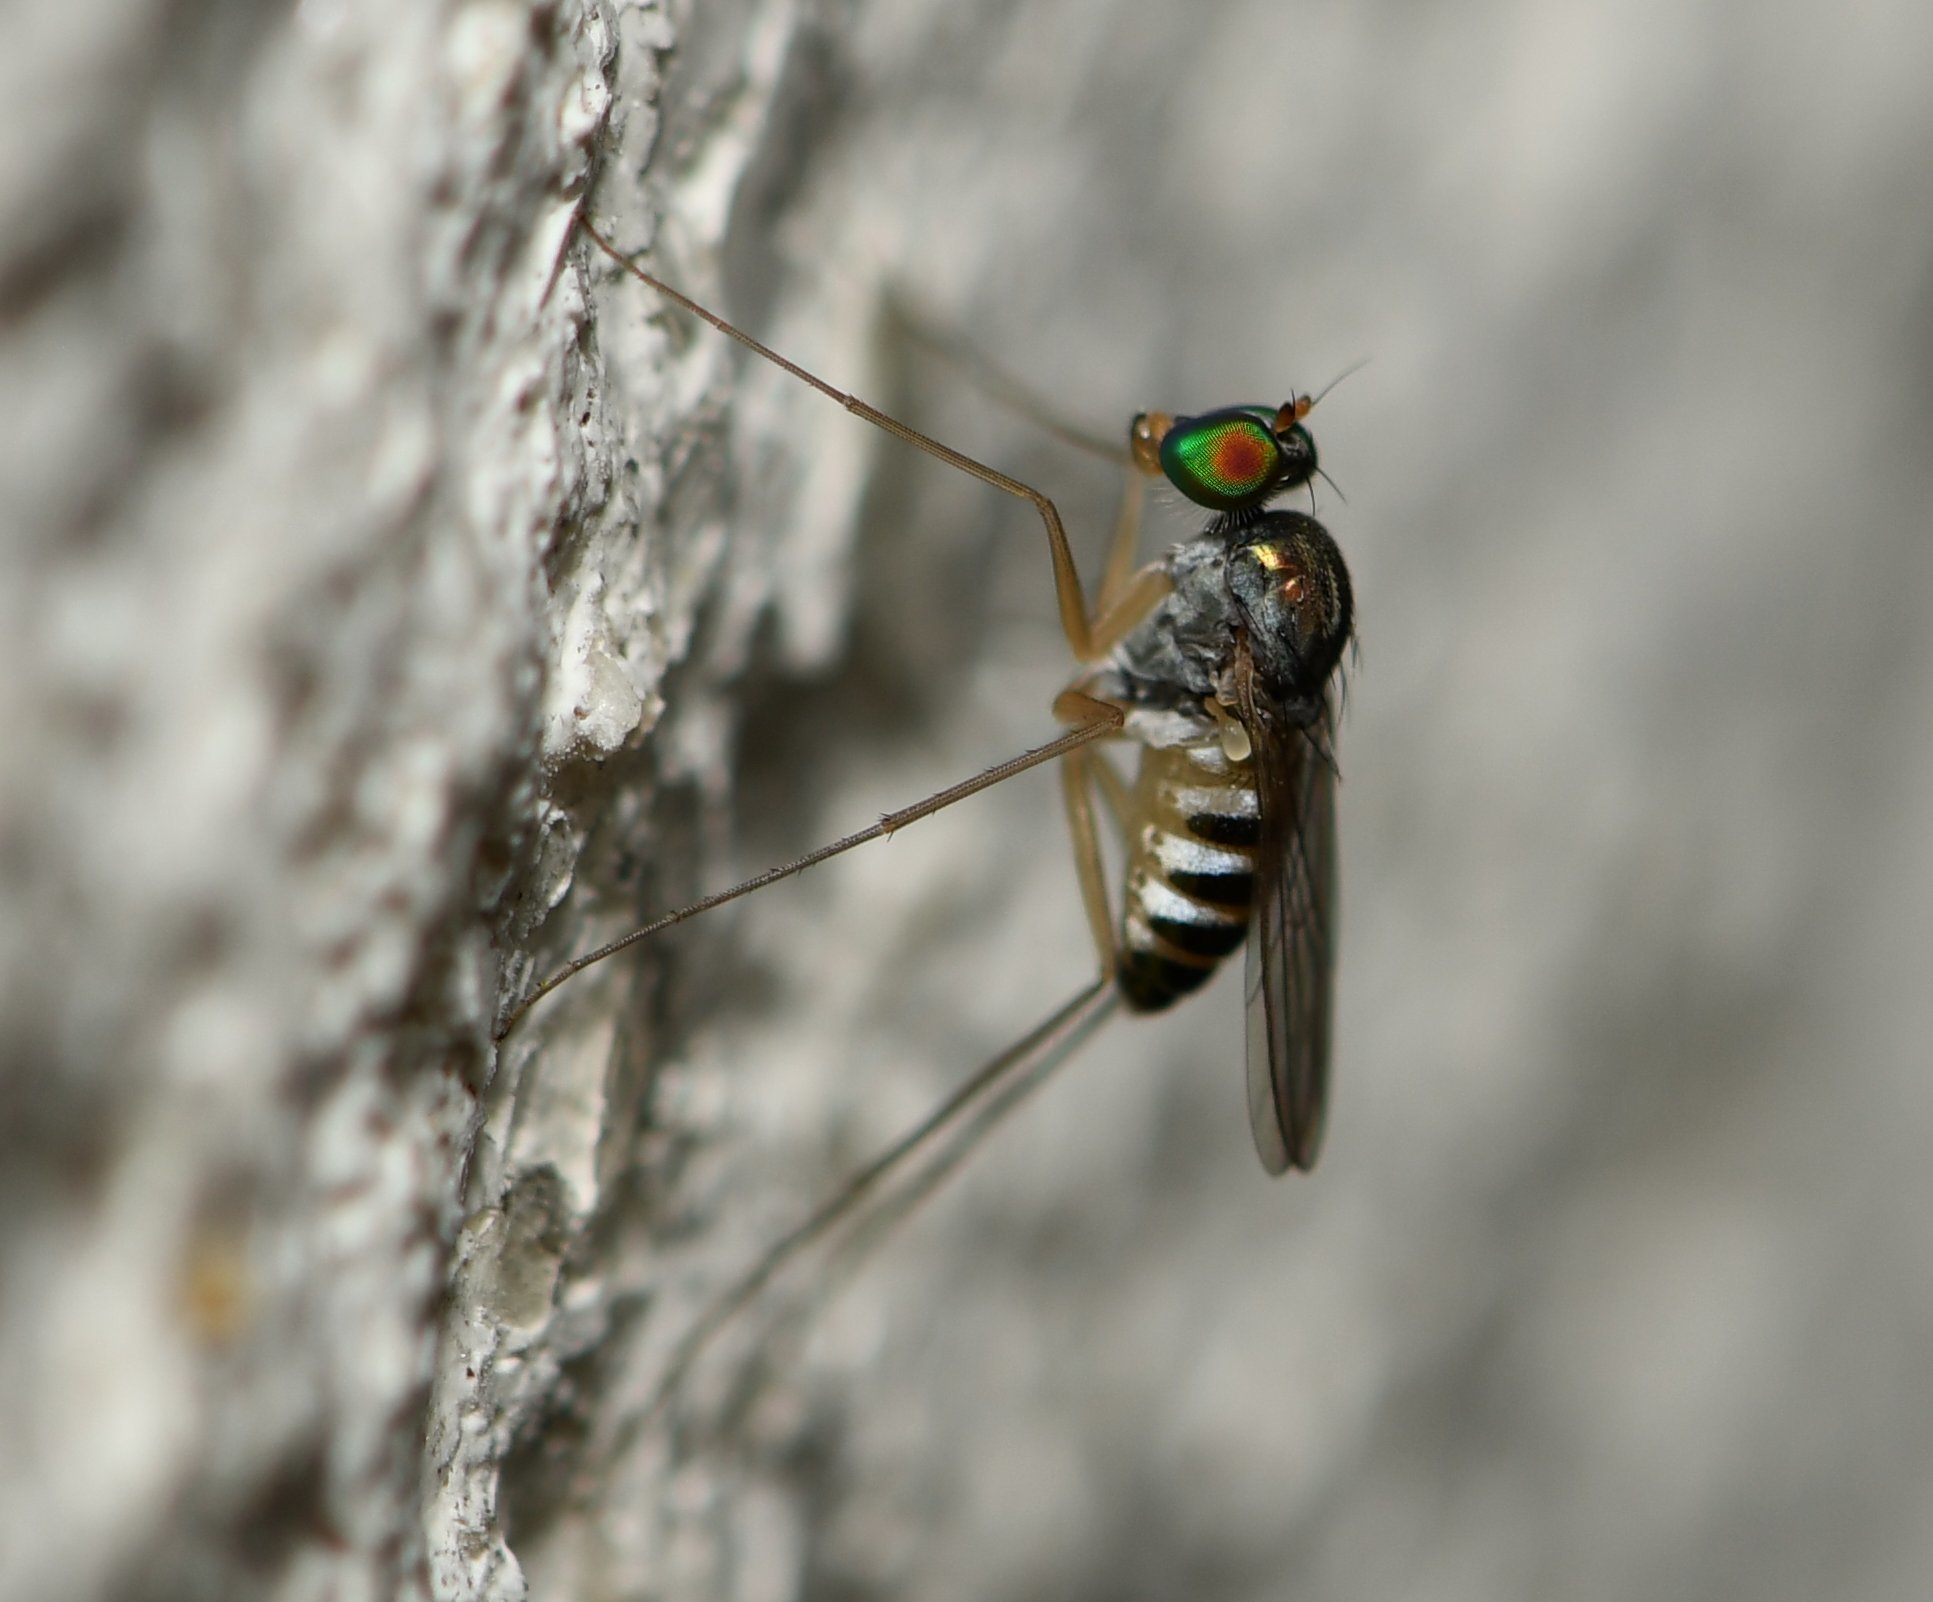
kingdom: Animalia
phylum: Arthropoda
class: Insecta
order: Diptera
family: Dolichopodidae
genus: Dactylomyia
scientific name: Dactylomyia lateralis
